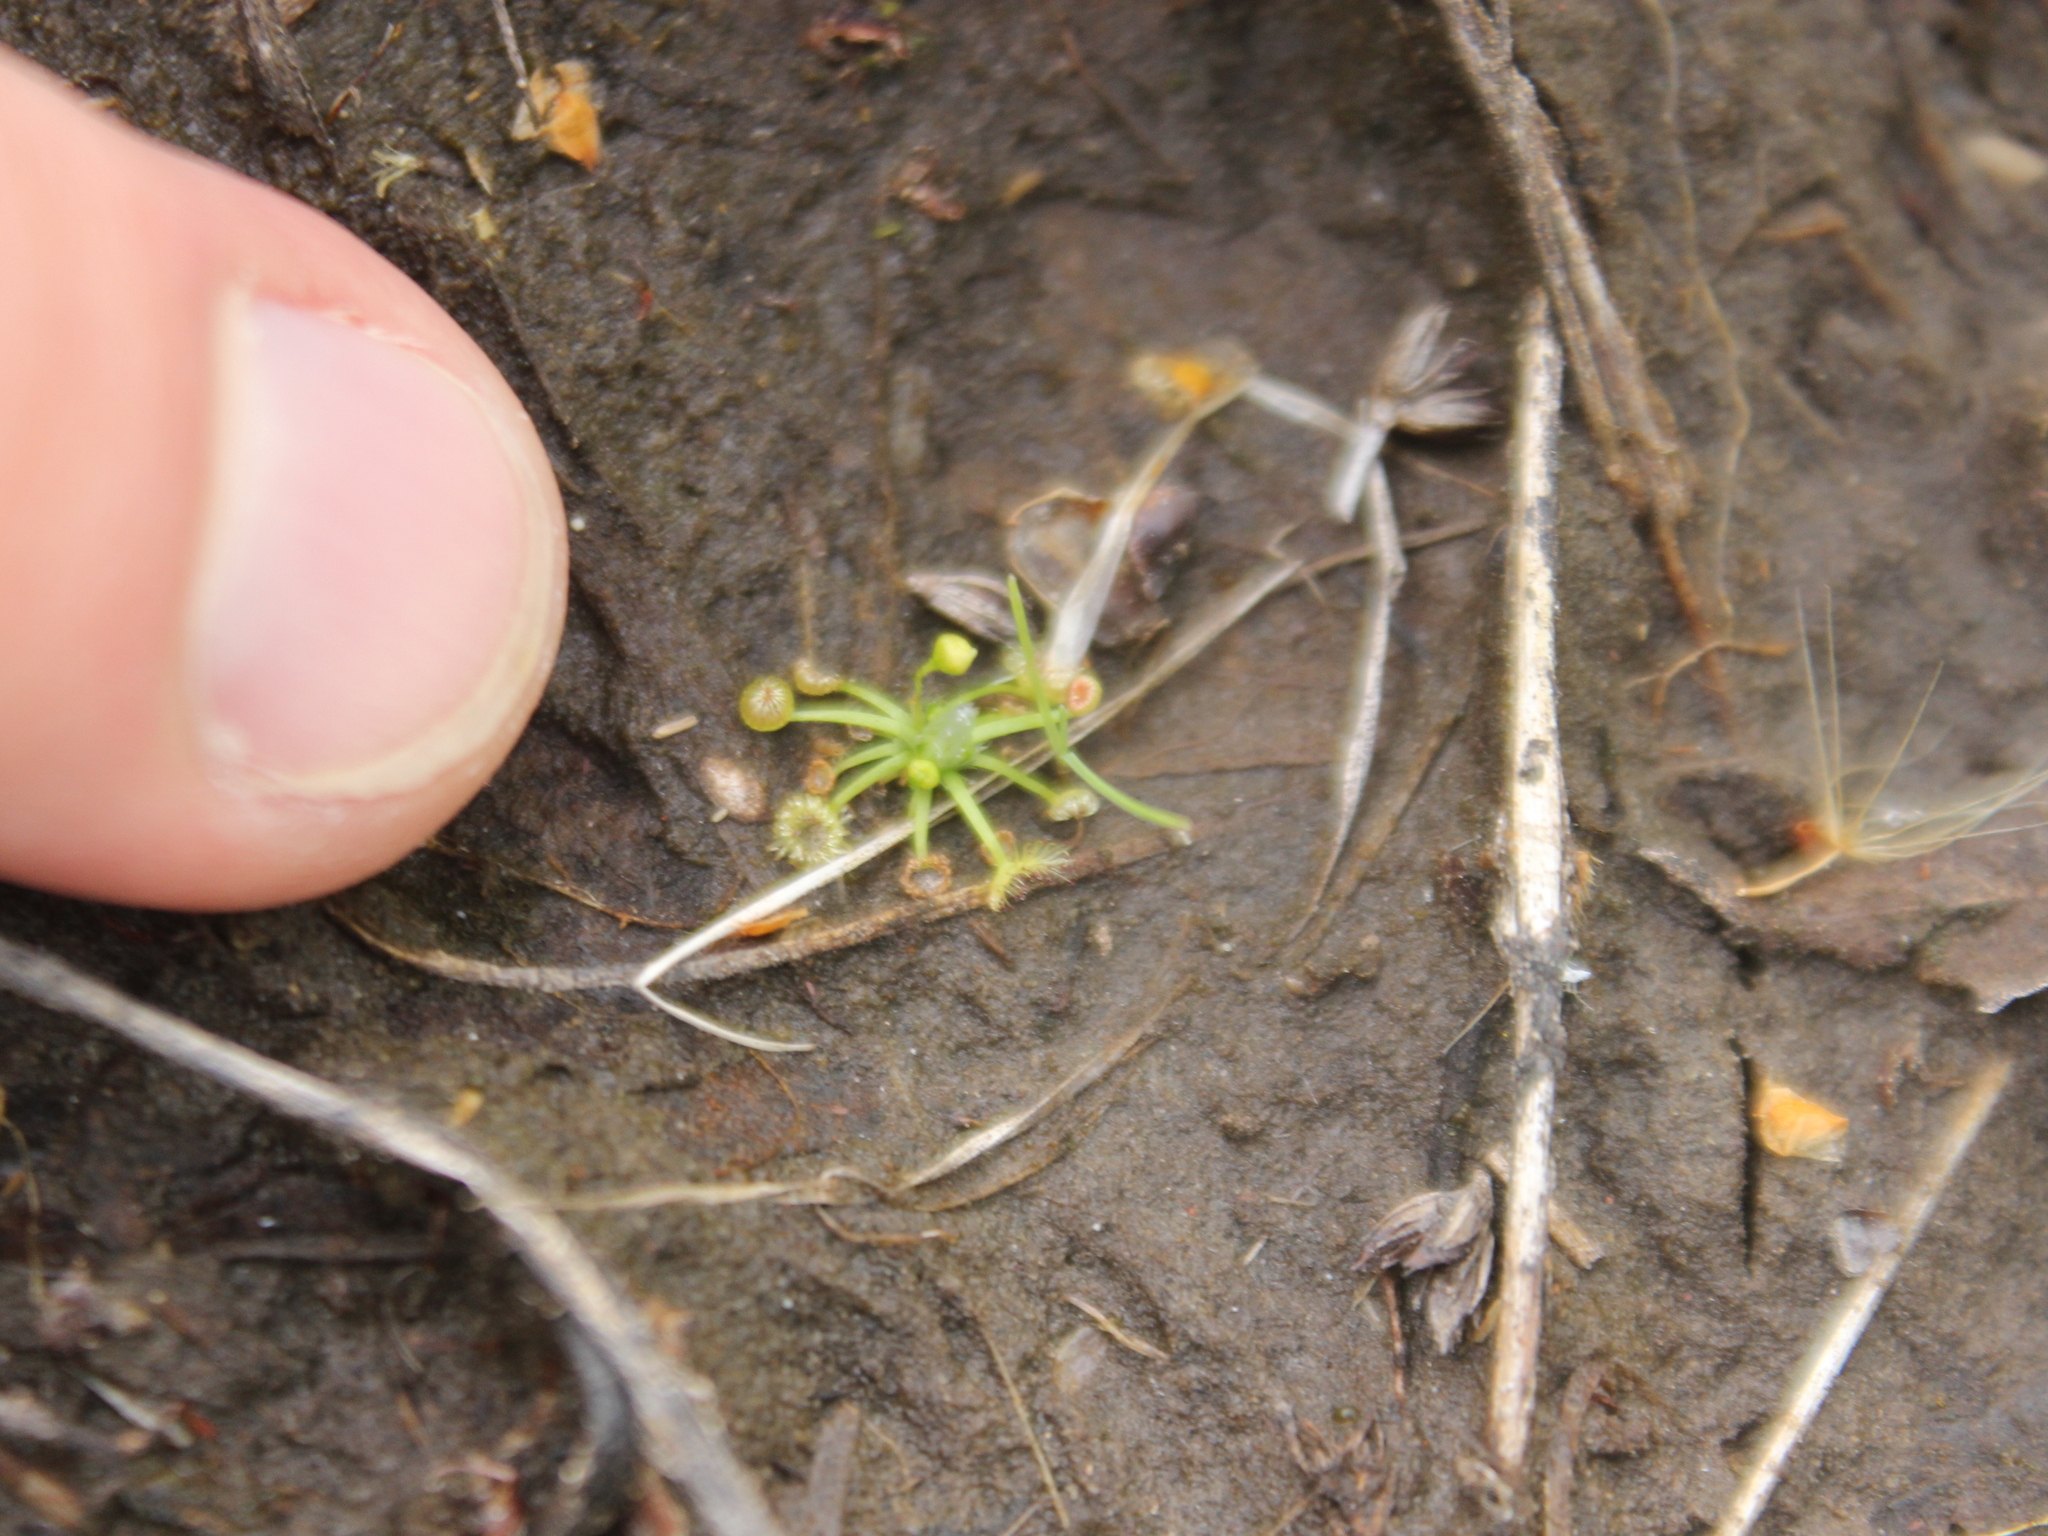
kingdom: Plantae
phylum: Tracheophyta
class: Magnoliopsida
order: Caryophyllales
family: Droseraceae
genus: Drosera
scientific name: Drosera pygmaea
